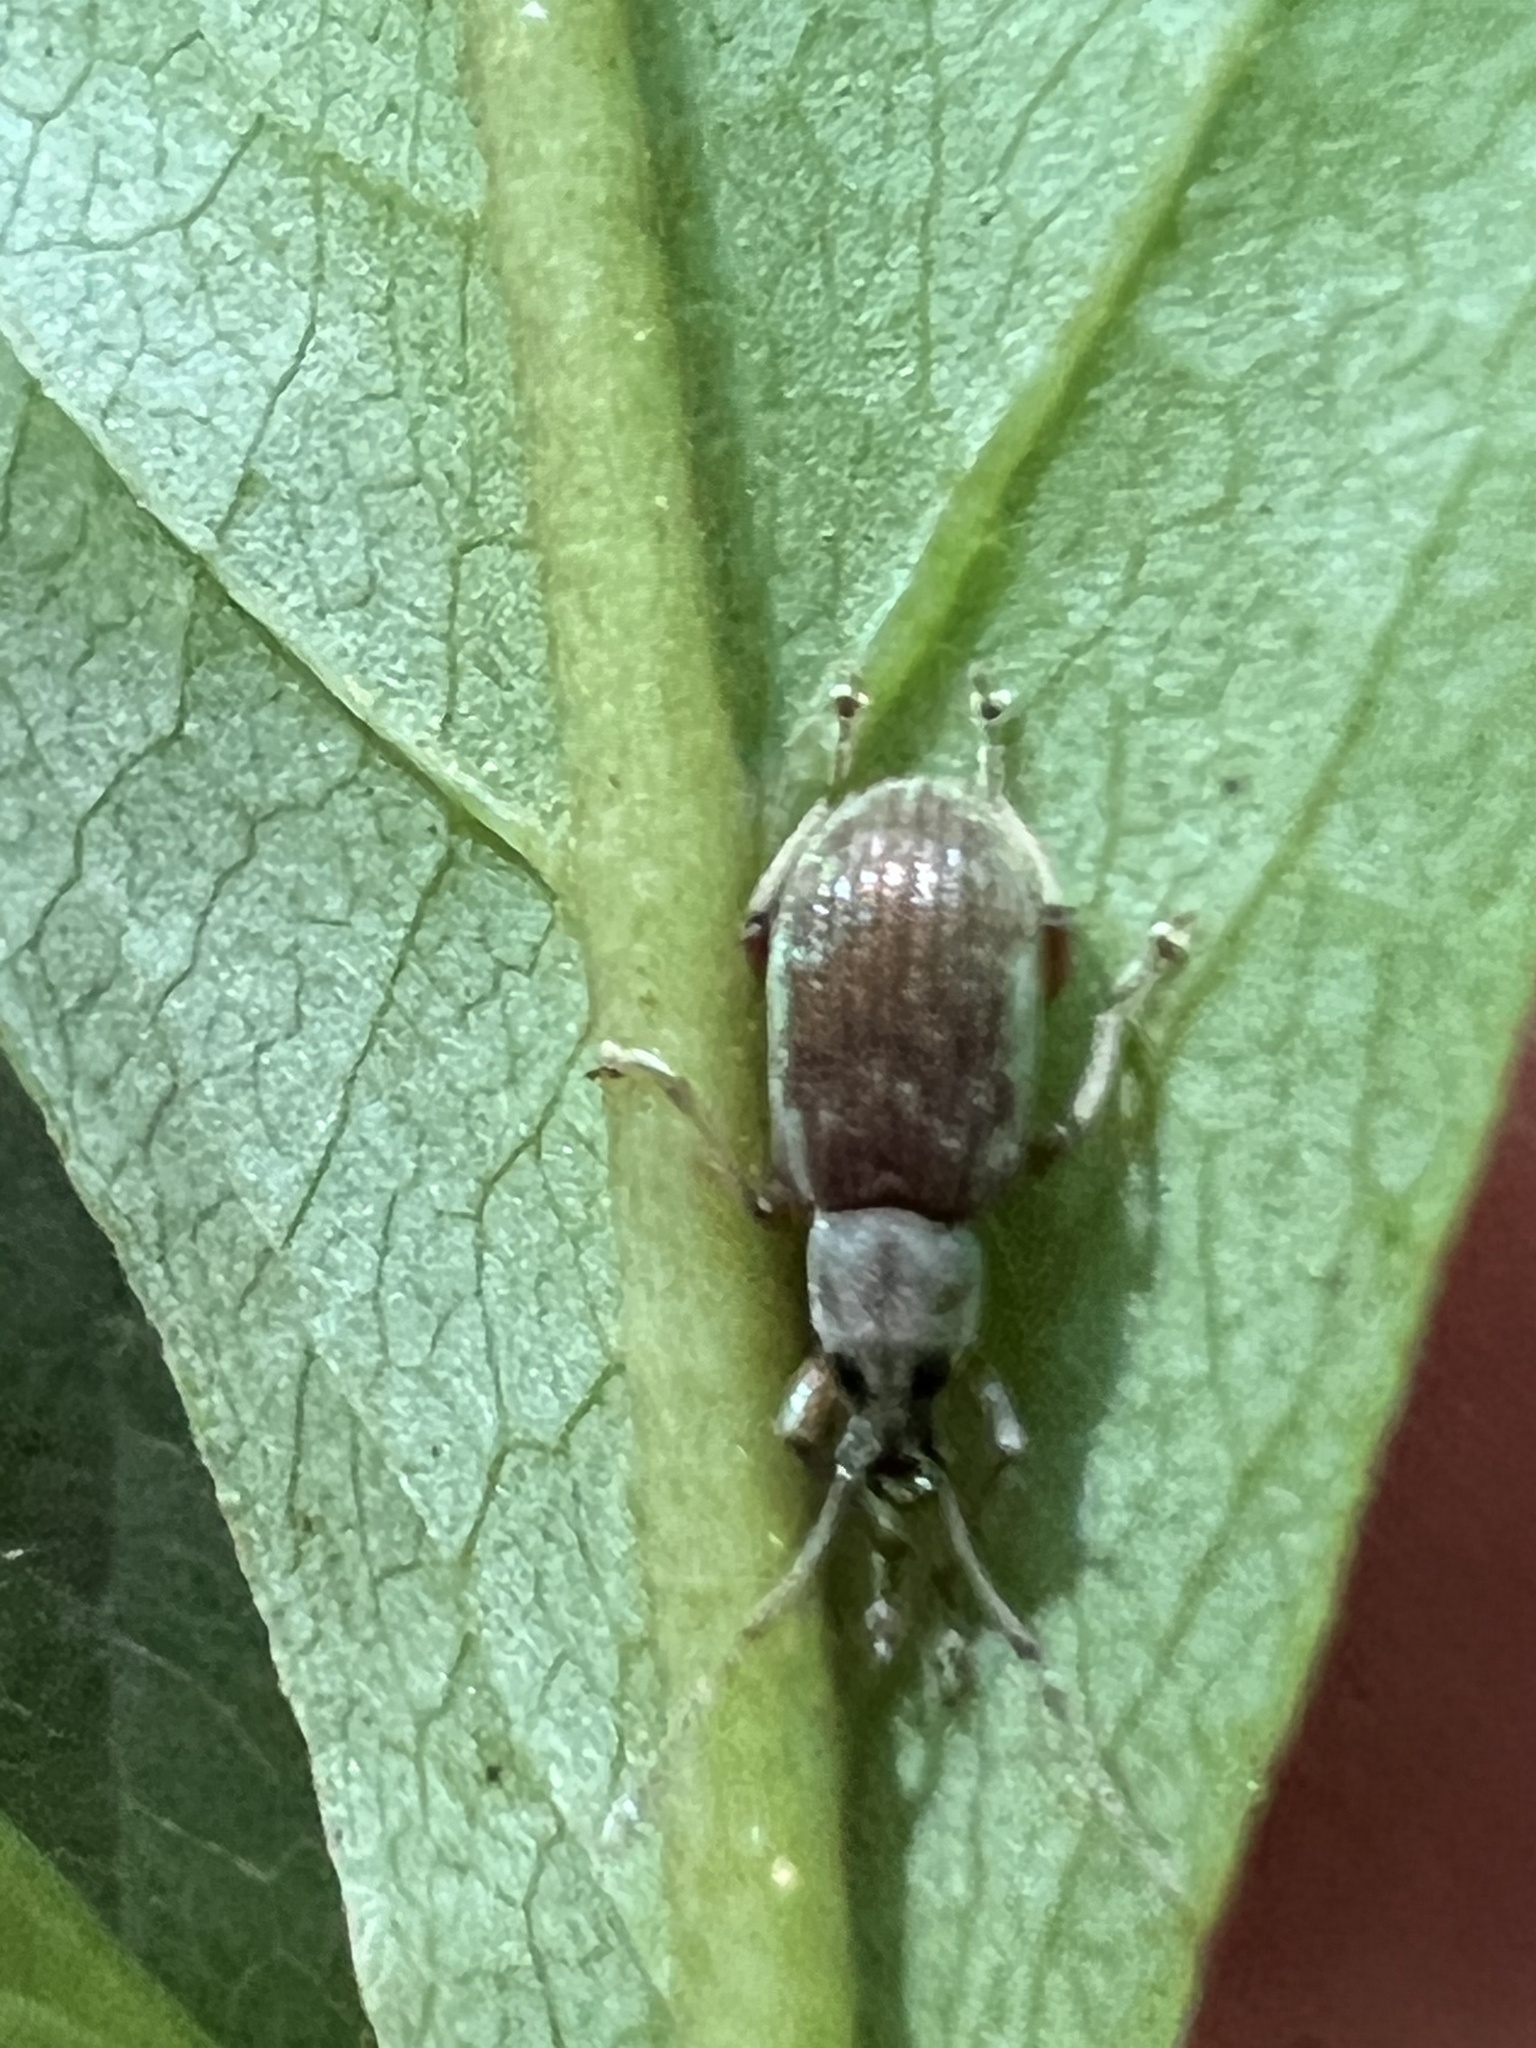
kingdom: Animalia
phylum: Arthropoda
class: Insecta
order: Coleoptera
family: Curculionidae
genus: Cyrtepistomus
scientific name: Cyrtepistomus castaneus
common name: Weevil
